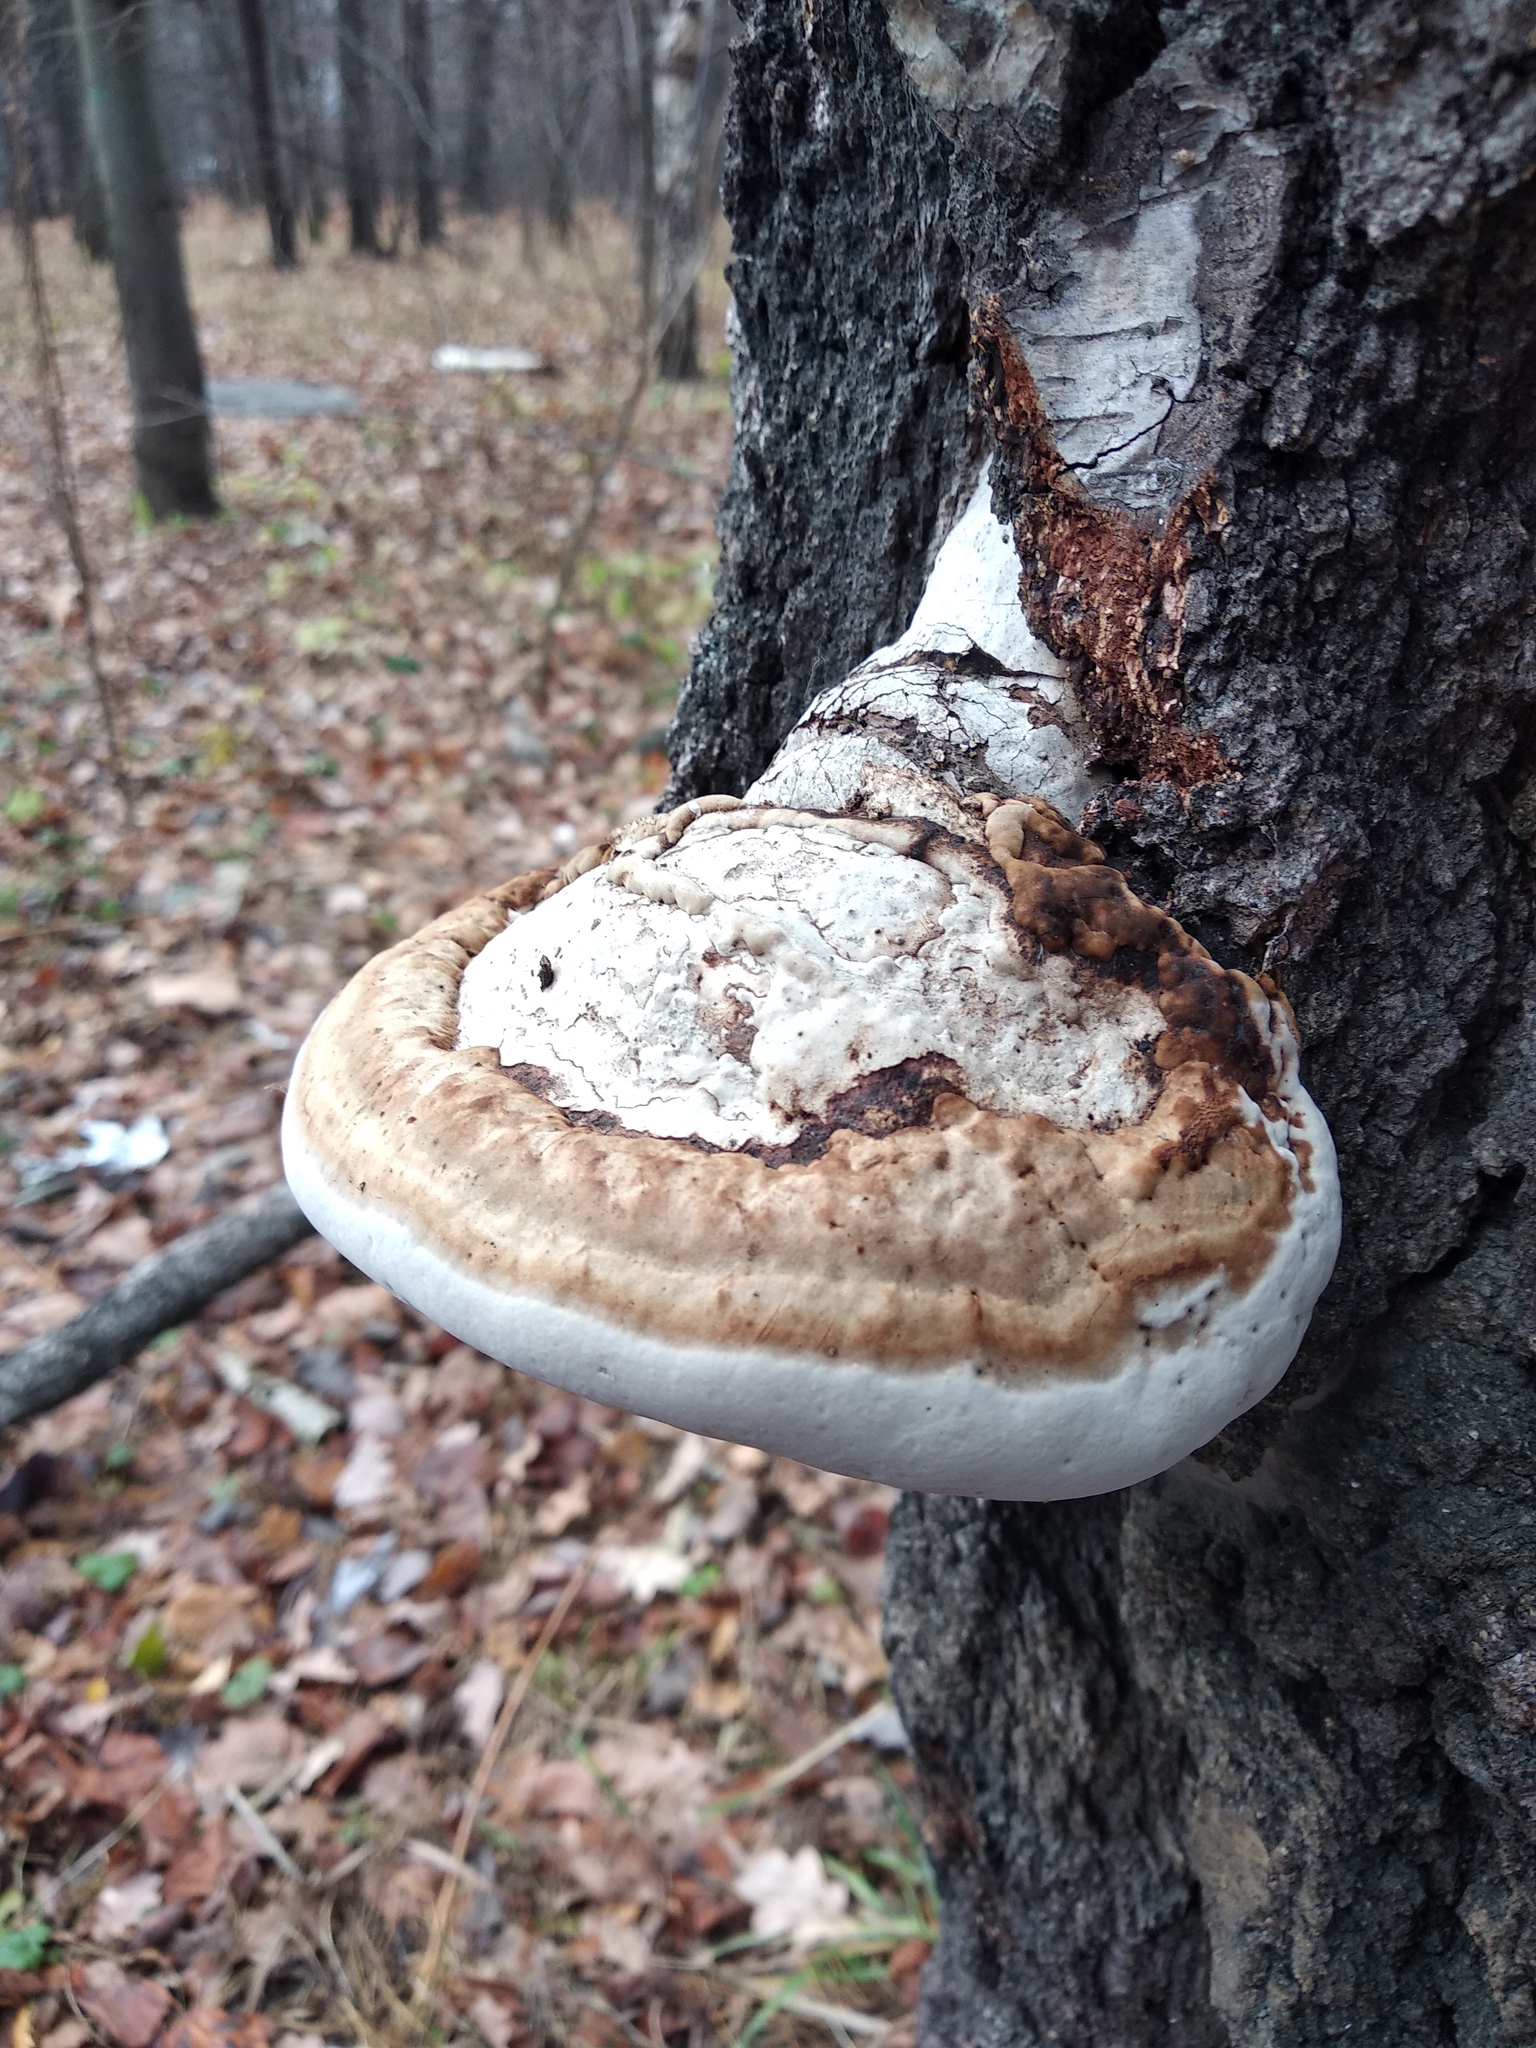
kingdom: Fungi
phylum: Basidiomycota
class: Agaricomycetes
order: Polyporales
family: Polyporaceae
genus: Fomes
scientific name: Fomes fomentarius
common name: Hoof fungus
